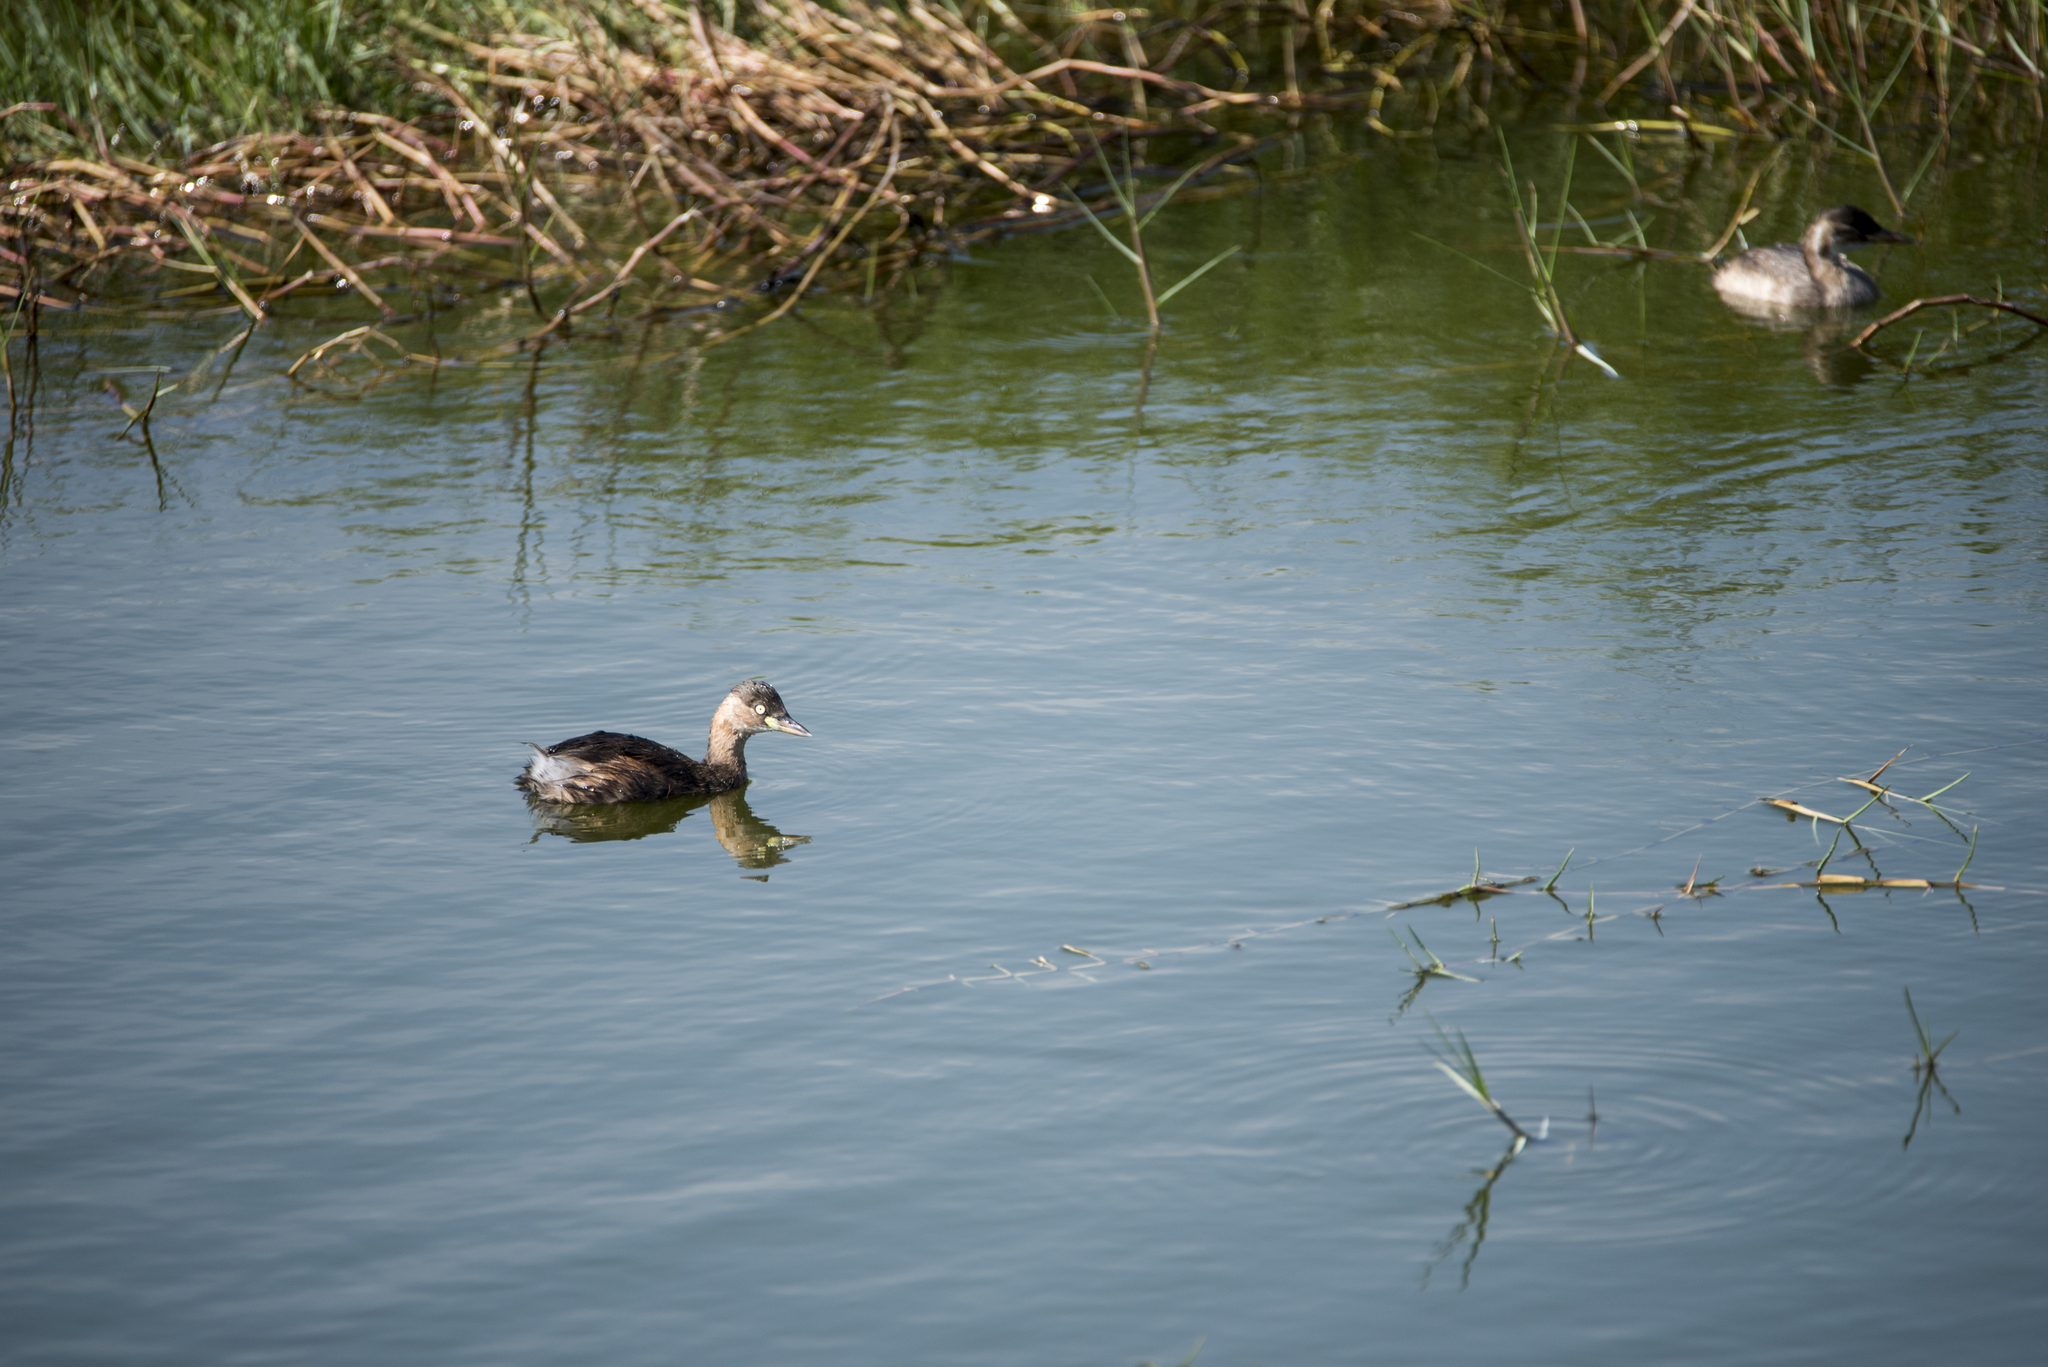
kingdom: Animalia
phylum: Chordata
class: Aves
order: Podicipediformes
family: Podicipedidae
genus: Tachybaptus
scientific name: Tachybaptus ruficollis
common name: Little grebe
